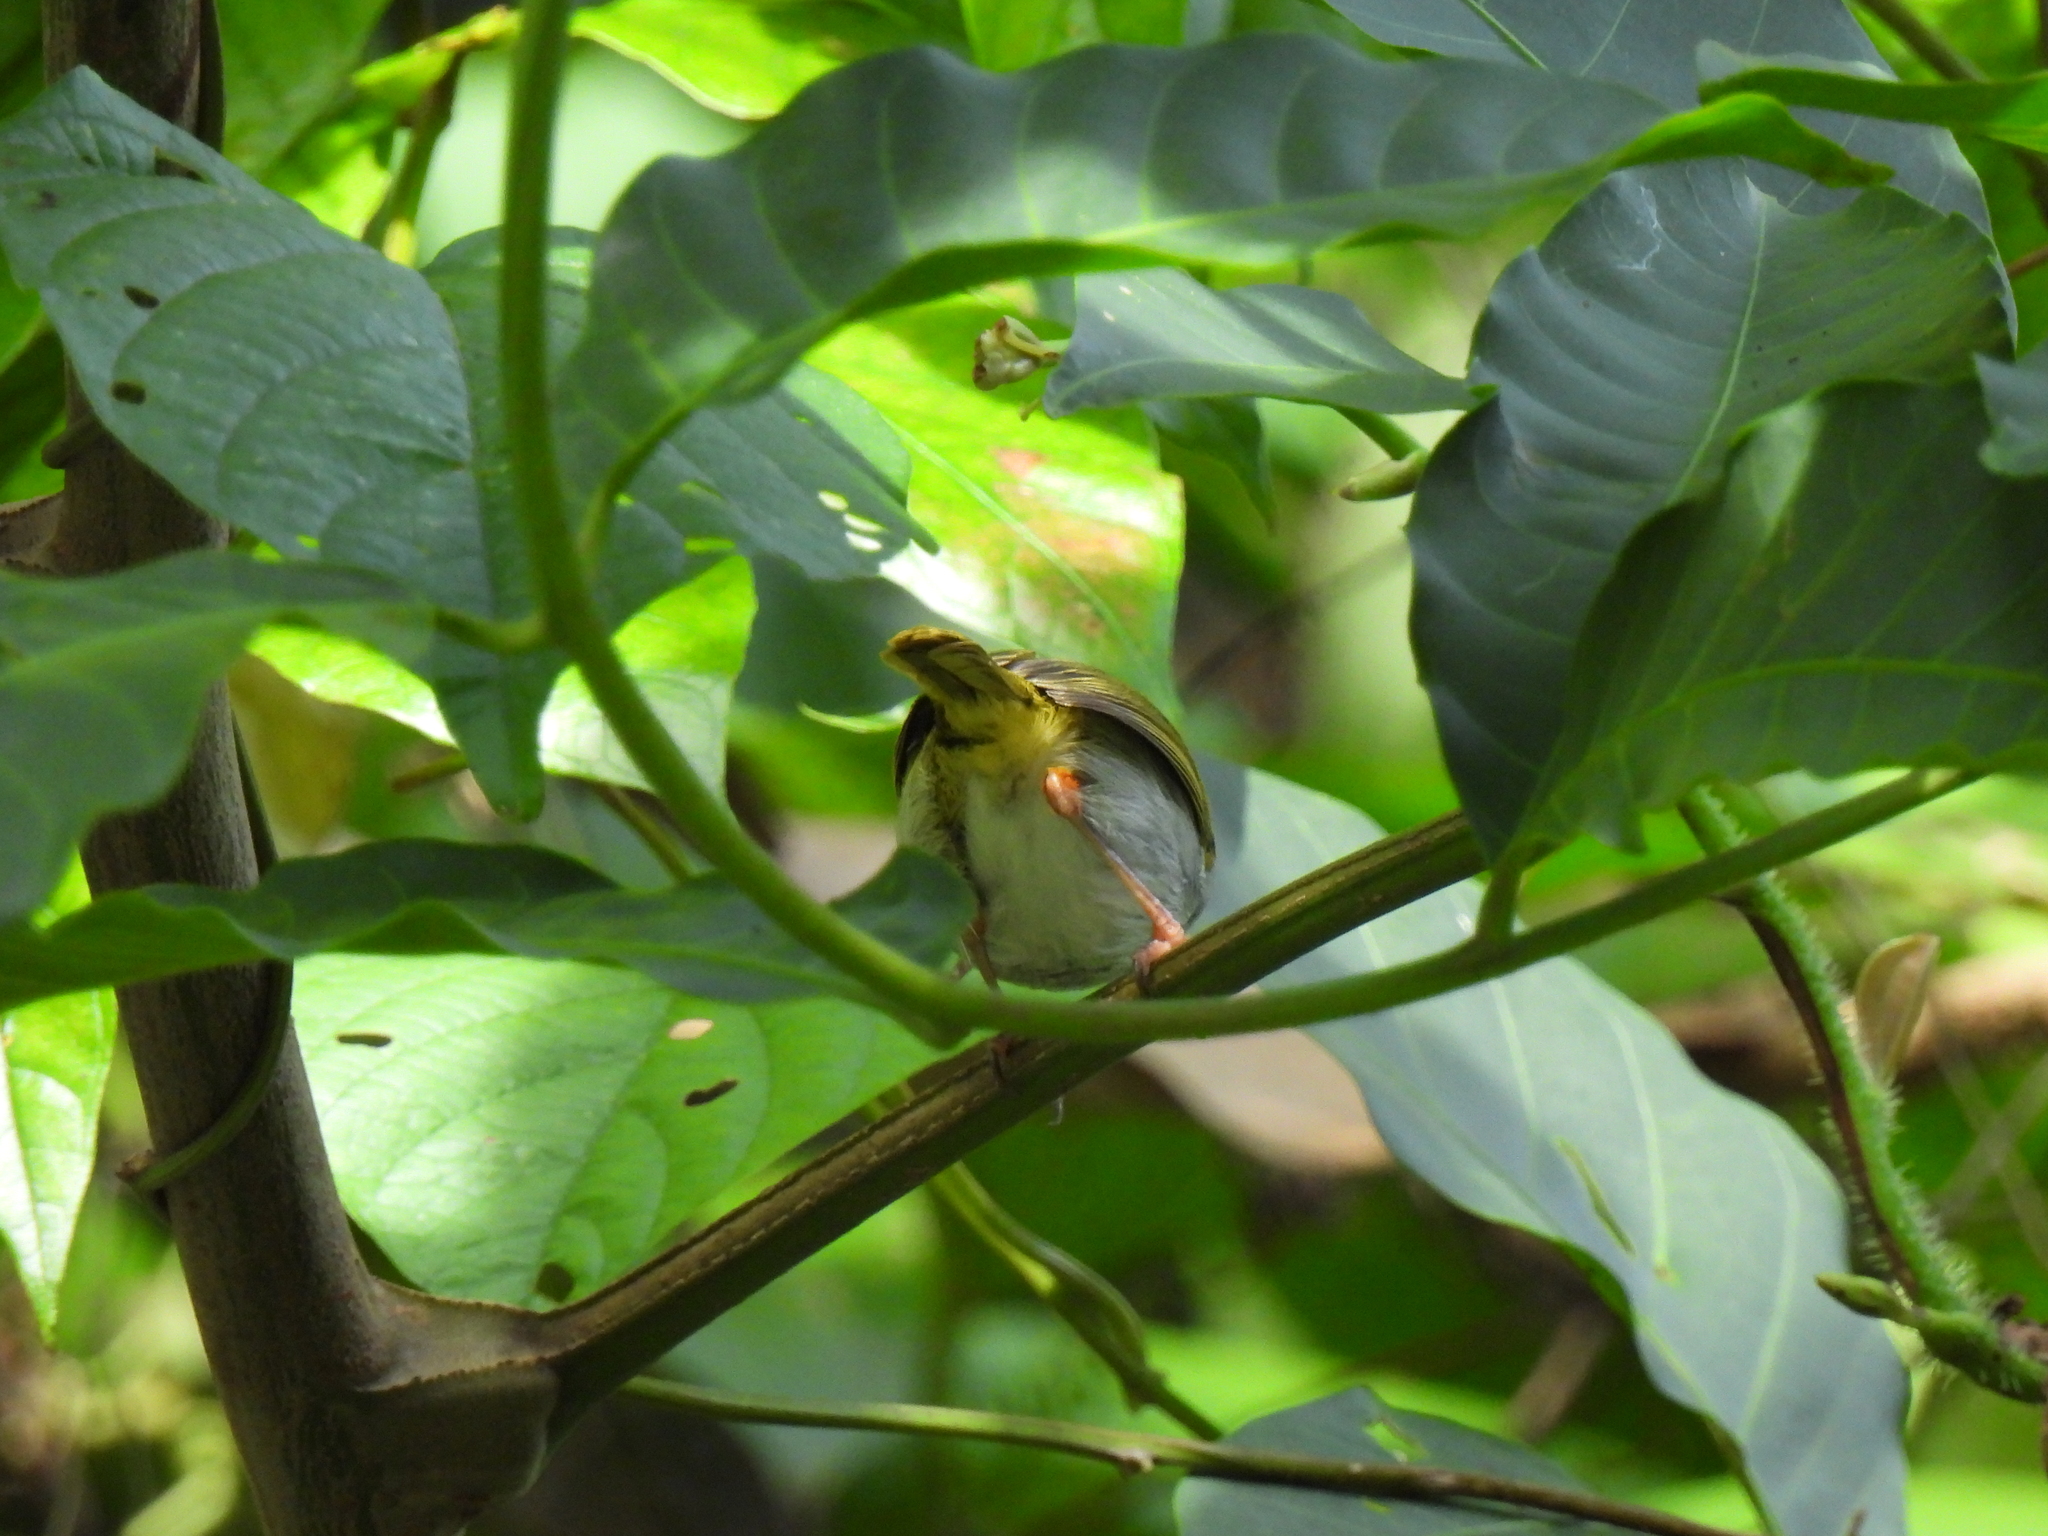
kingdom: Animalia
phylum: Chordata
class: Aves
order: Passeriformes
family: Cisticolidae
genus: Orthotomus
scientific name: Orthotomus atrogularis
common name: Dark-necked tailorbird
